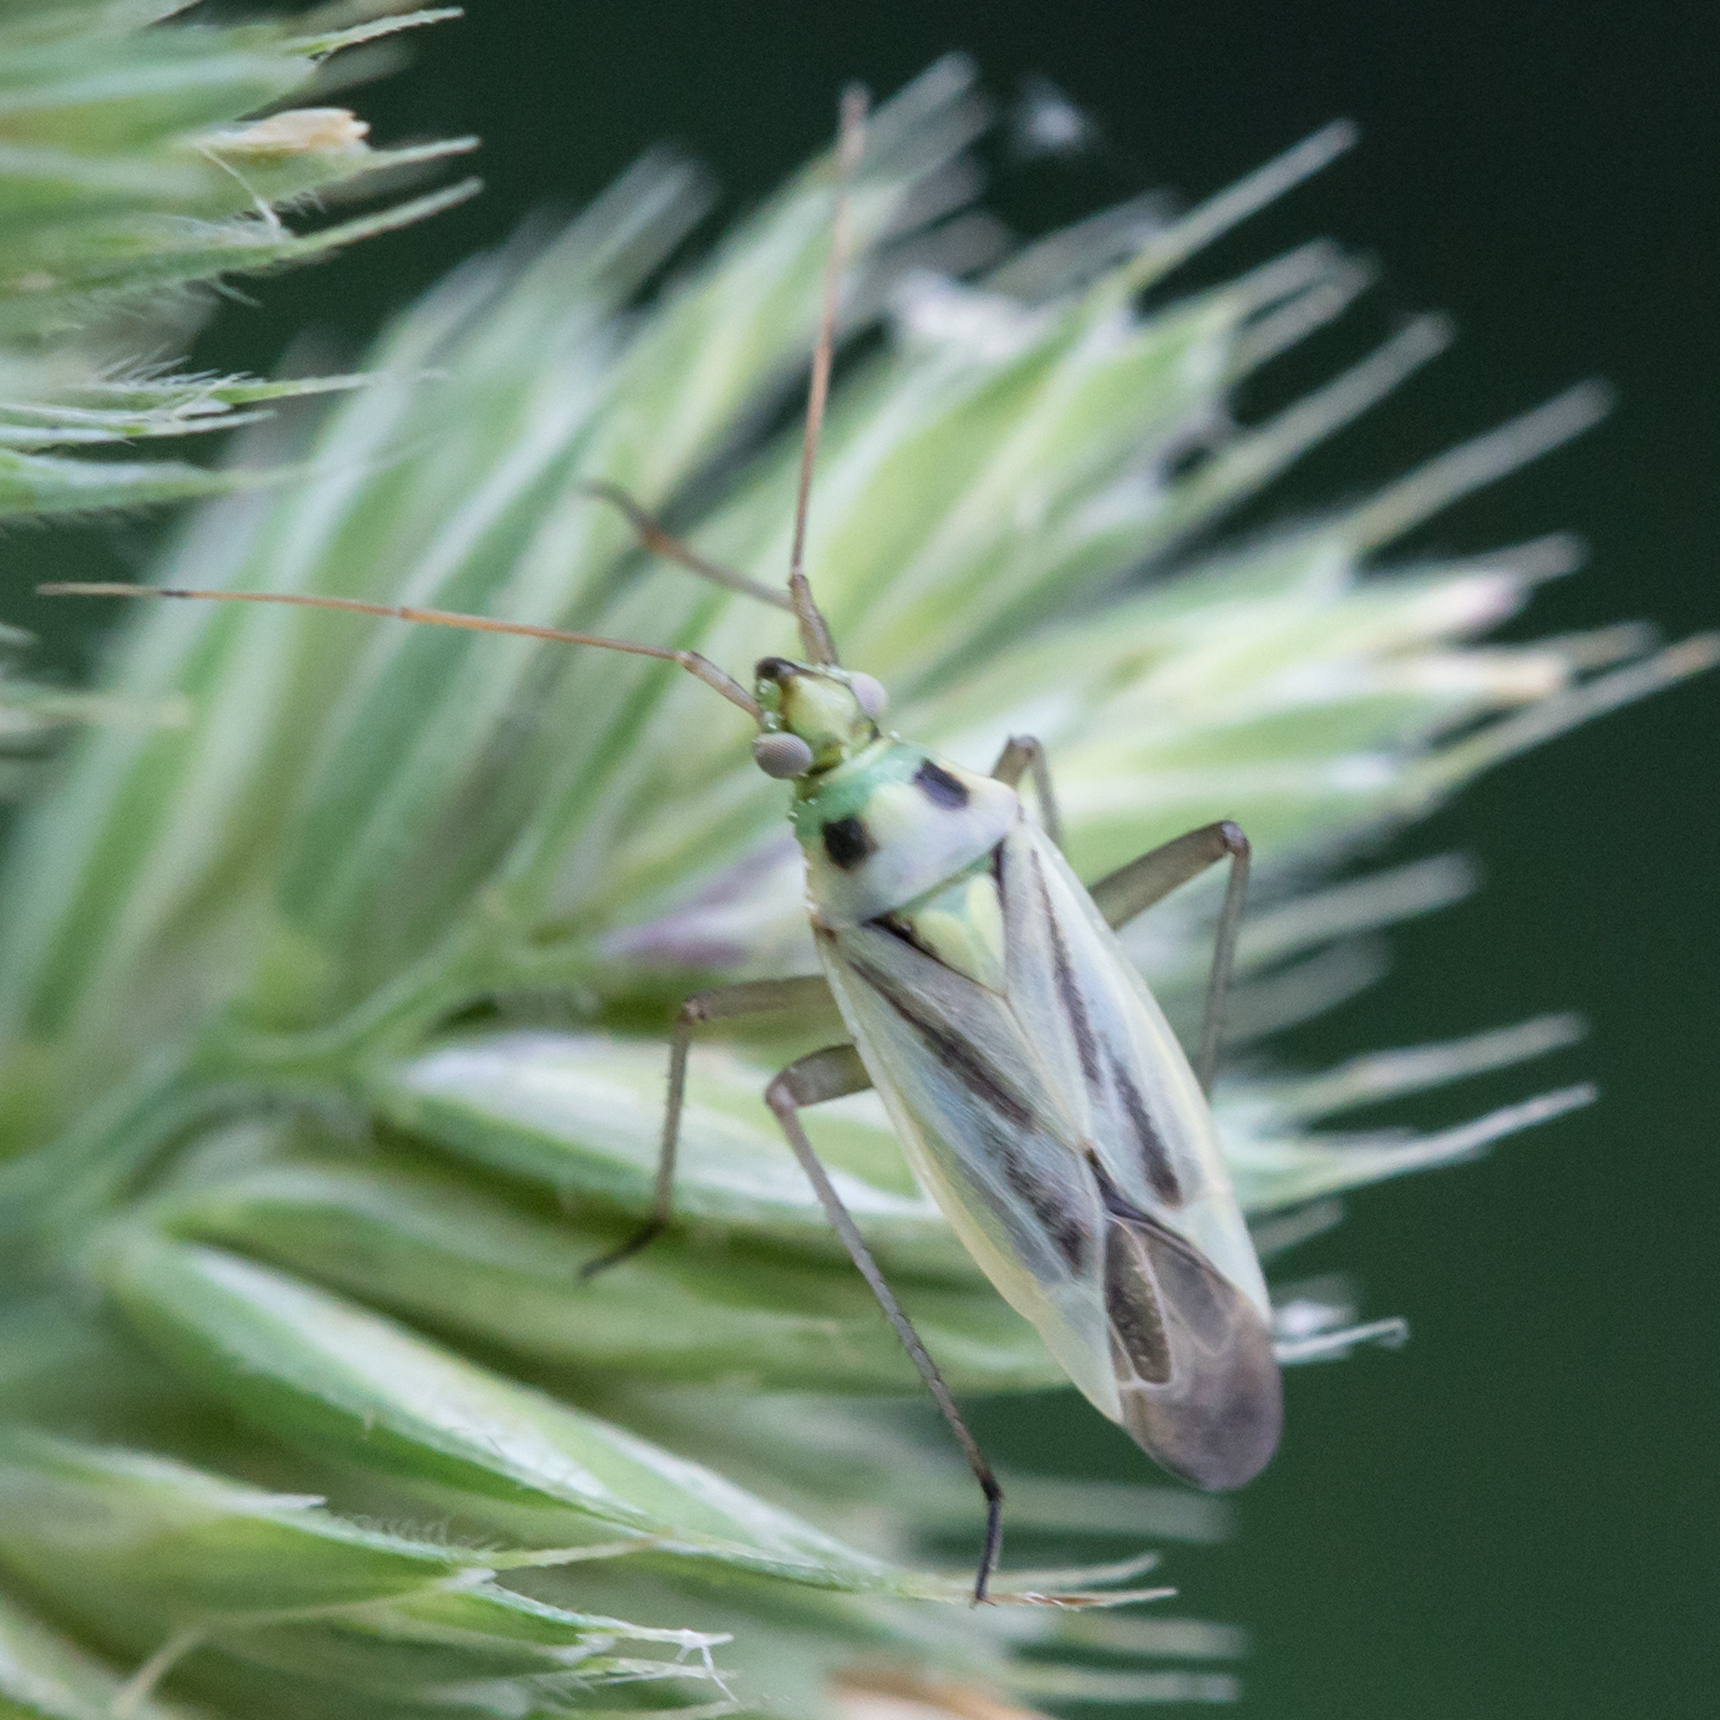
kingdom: Animalia
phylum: Arthropoda
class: Insecta
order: Hemiptera
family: Miridae
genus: Stenotus
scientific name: Stenotus binotatus
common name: Plant bug
